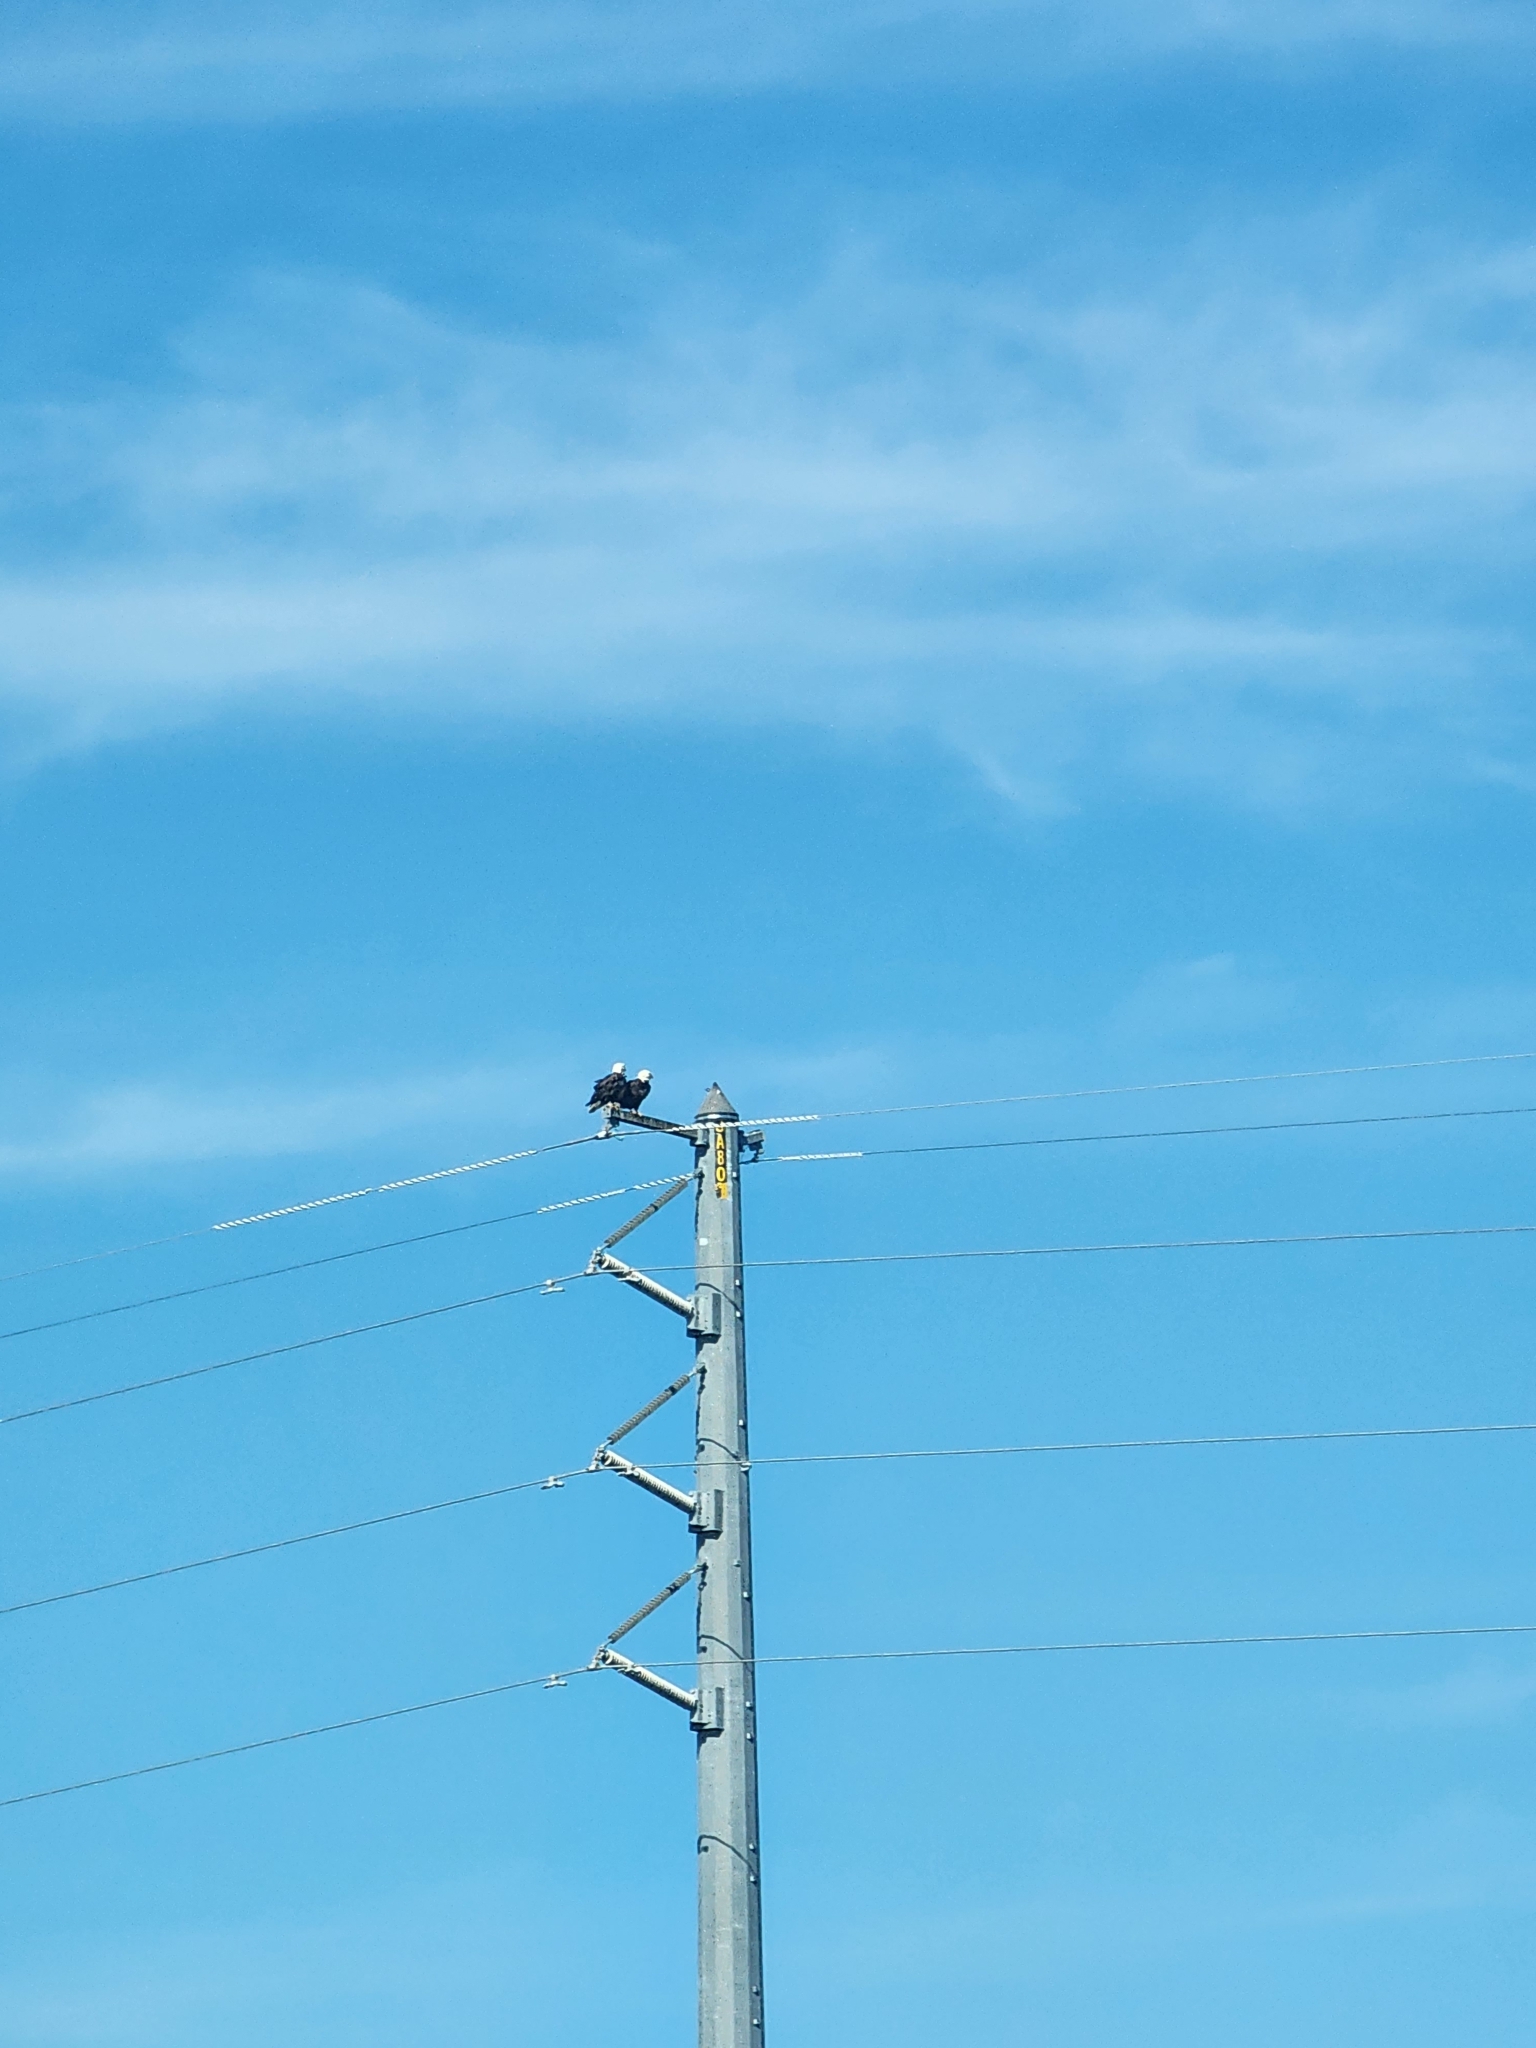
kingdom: Animalia
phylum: Chordata
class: Aves
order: Accipitriformes
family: Accipitridae
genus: Haliaeetus
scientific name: Haliaeetus leucocephalus
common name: Bald eagle
